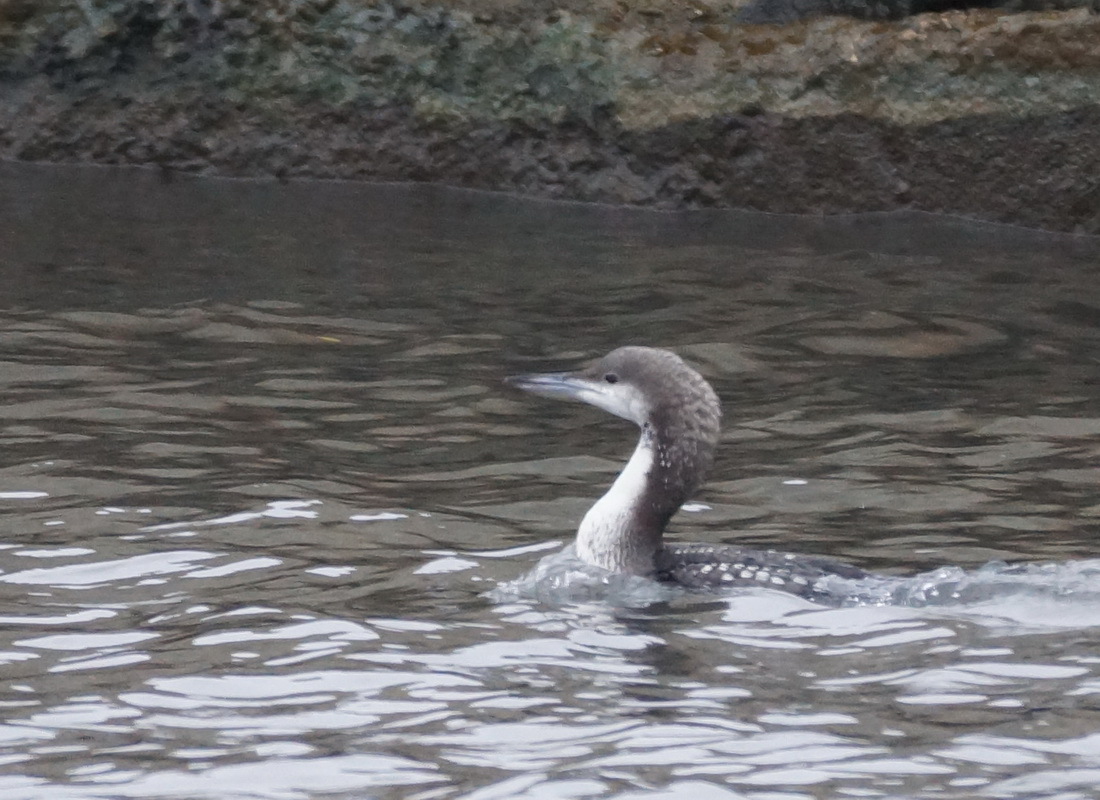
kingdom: Animalia
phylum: Chordata
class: Aves
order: Gaviiformes
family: Gaviidae
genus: Gavia
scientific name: Gavia arctica
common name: Black-throated loon
